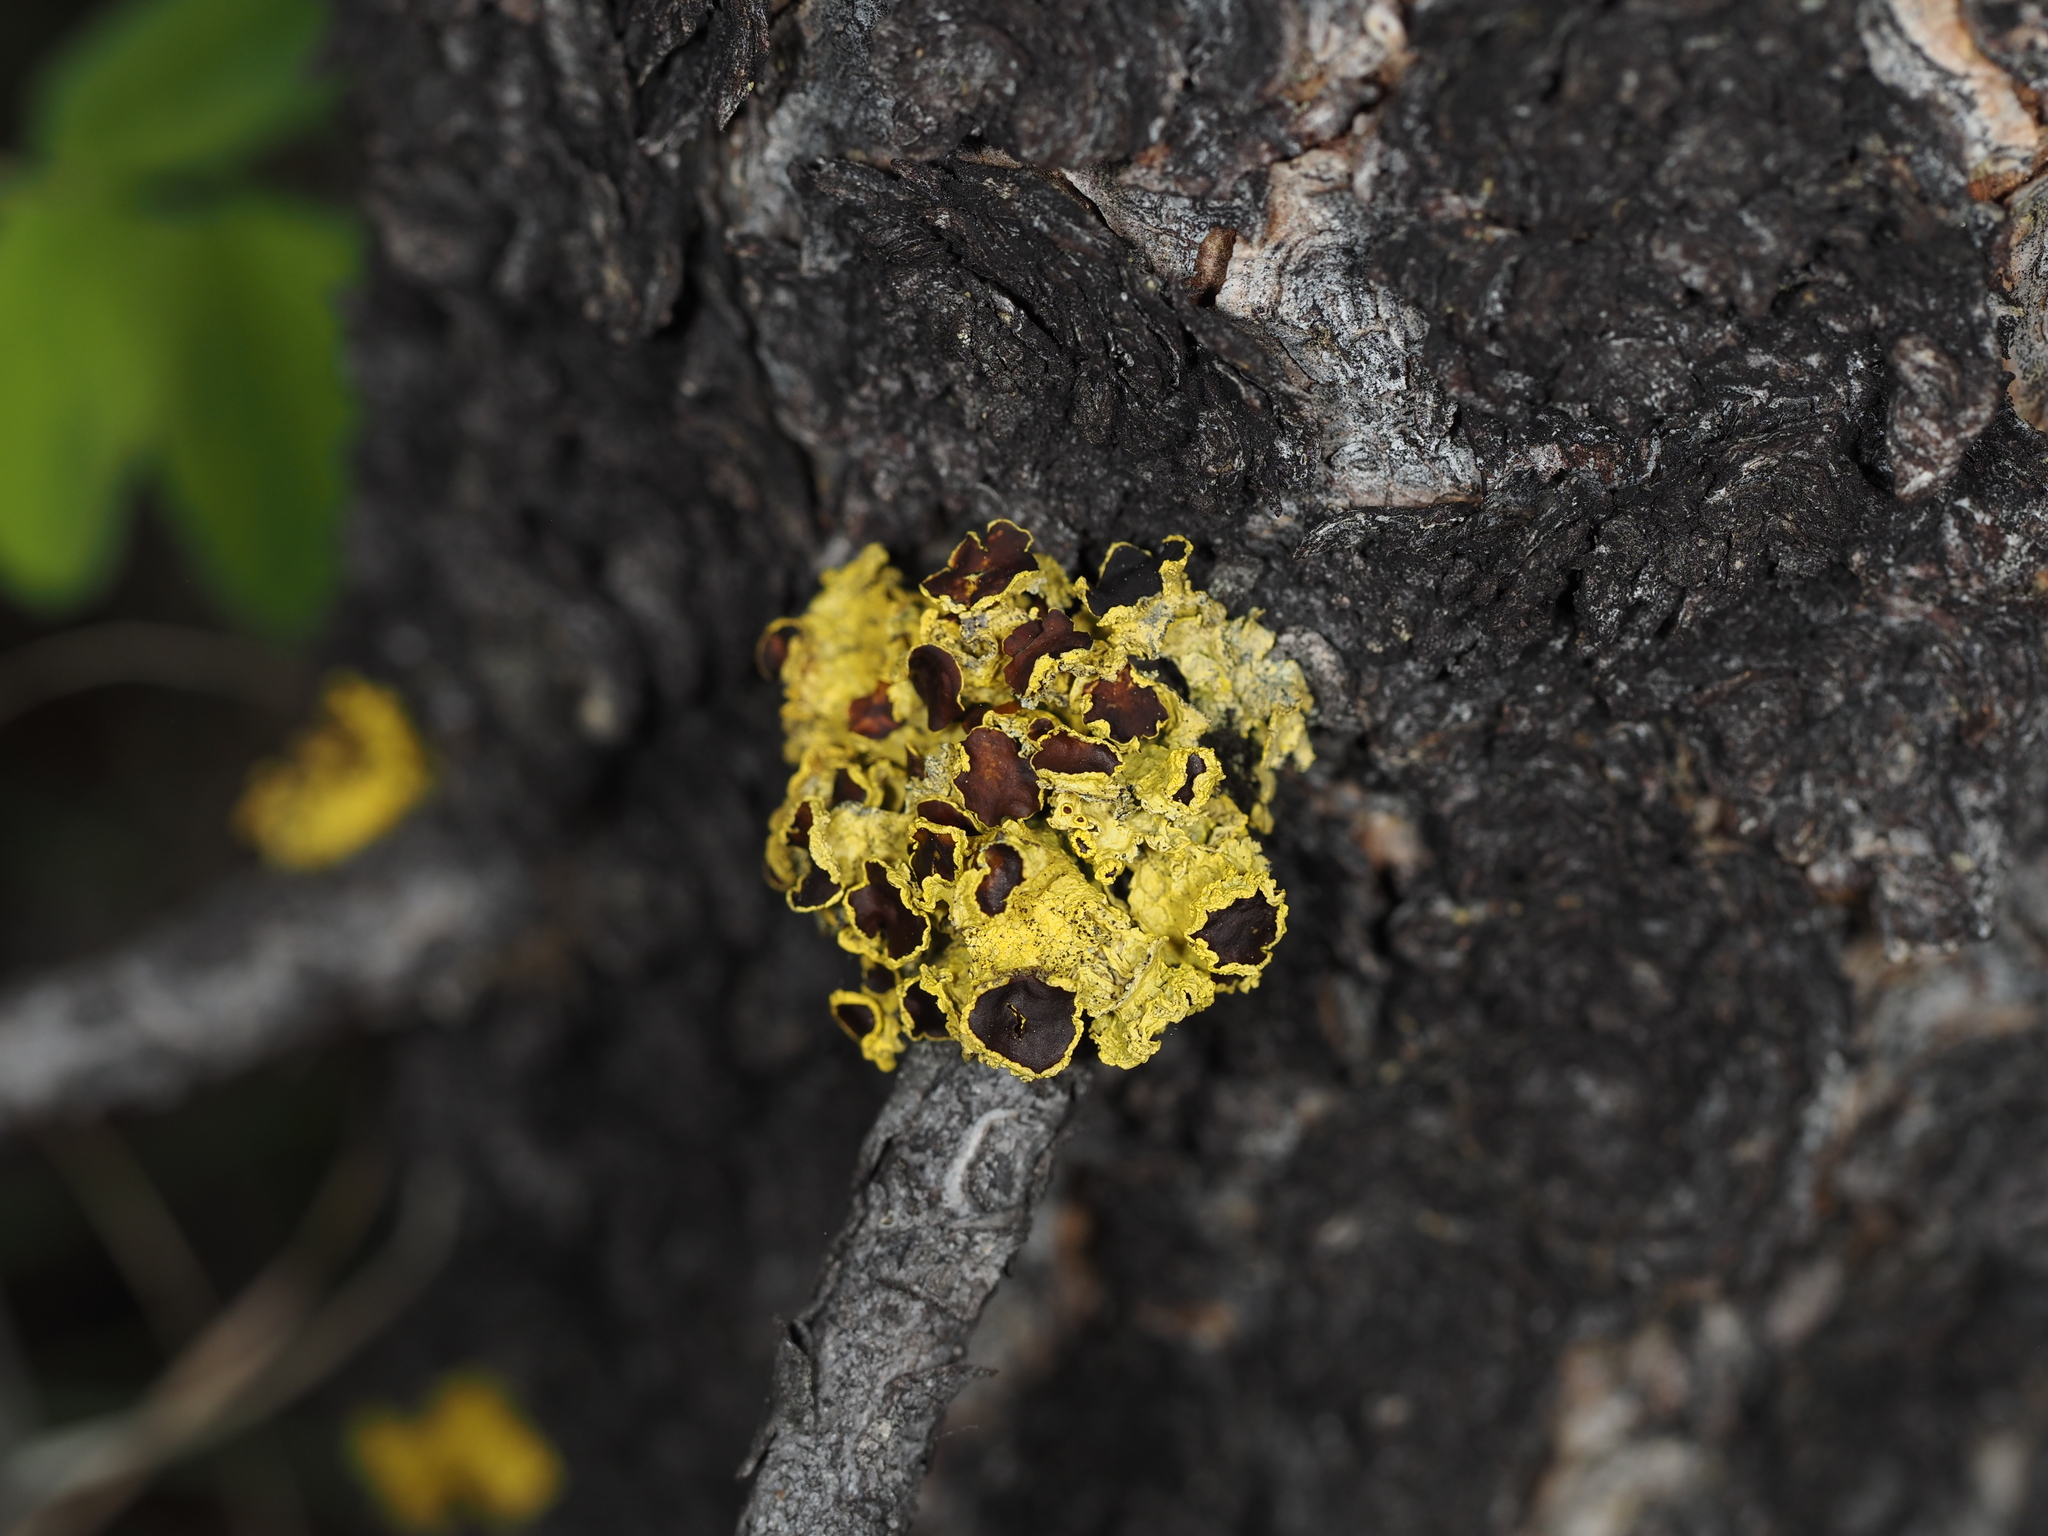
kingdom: Fungi
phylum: Ascomycota
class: Lecanoromycetes
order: Lecanorales
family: Parmeliaceae
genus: Vulpicida
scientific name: Vulpicida canadensis
